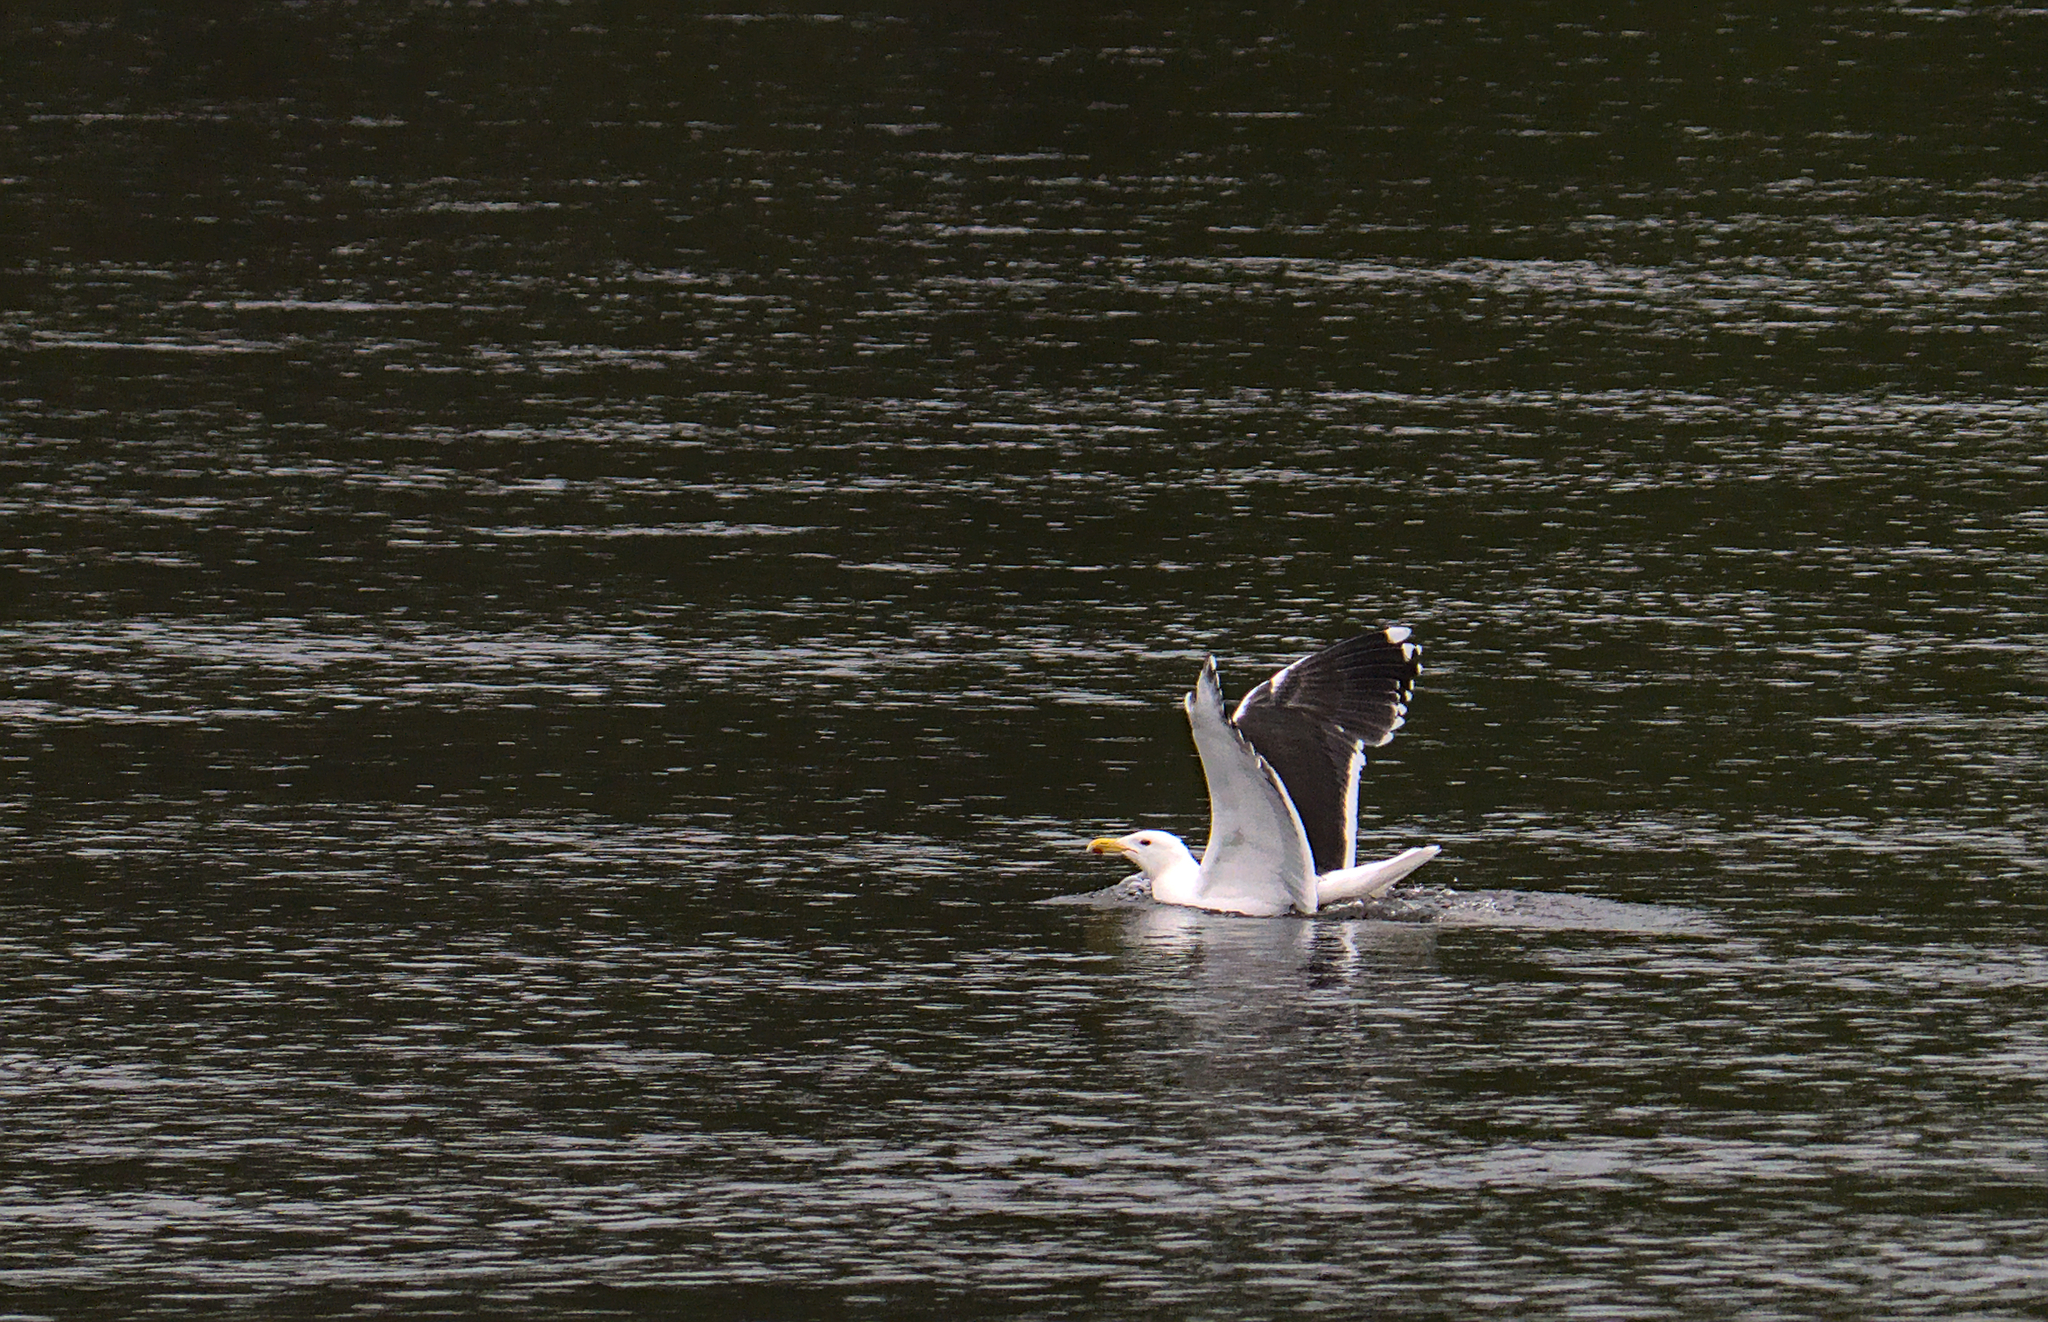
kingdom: Animalia
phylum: Chordata
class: Aves
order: Charadriiformes
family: Laridae
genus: Larus
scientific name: Larus marinus
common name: Great black-backed gull
